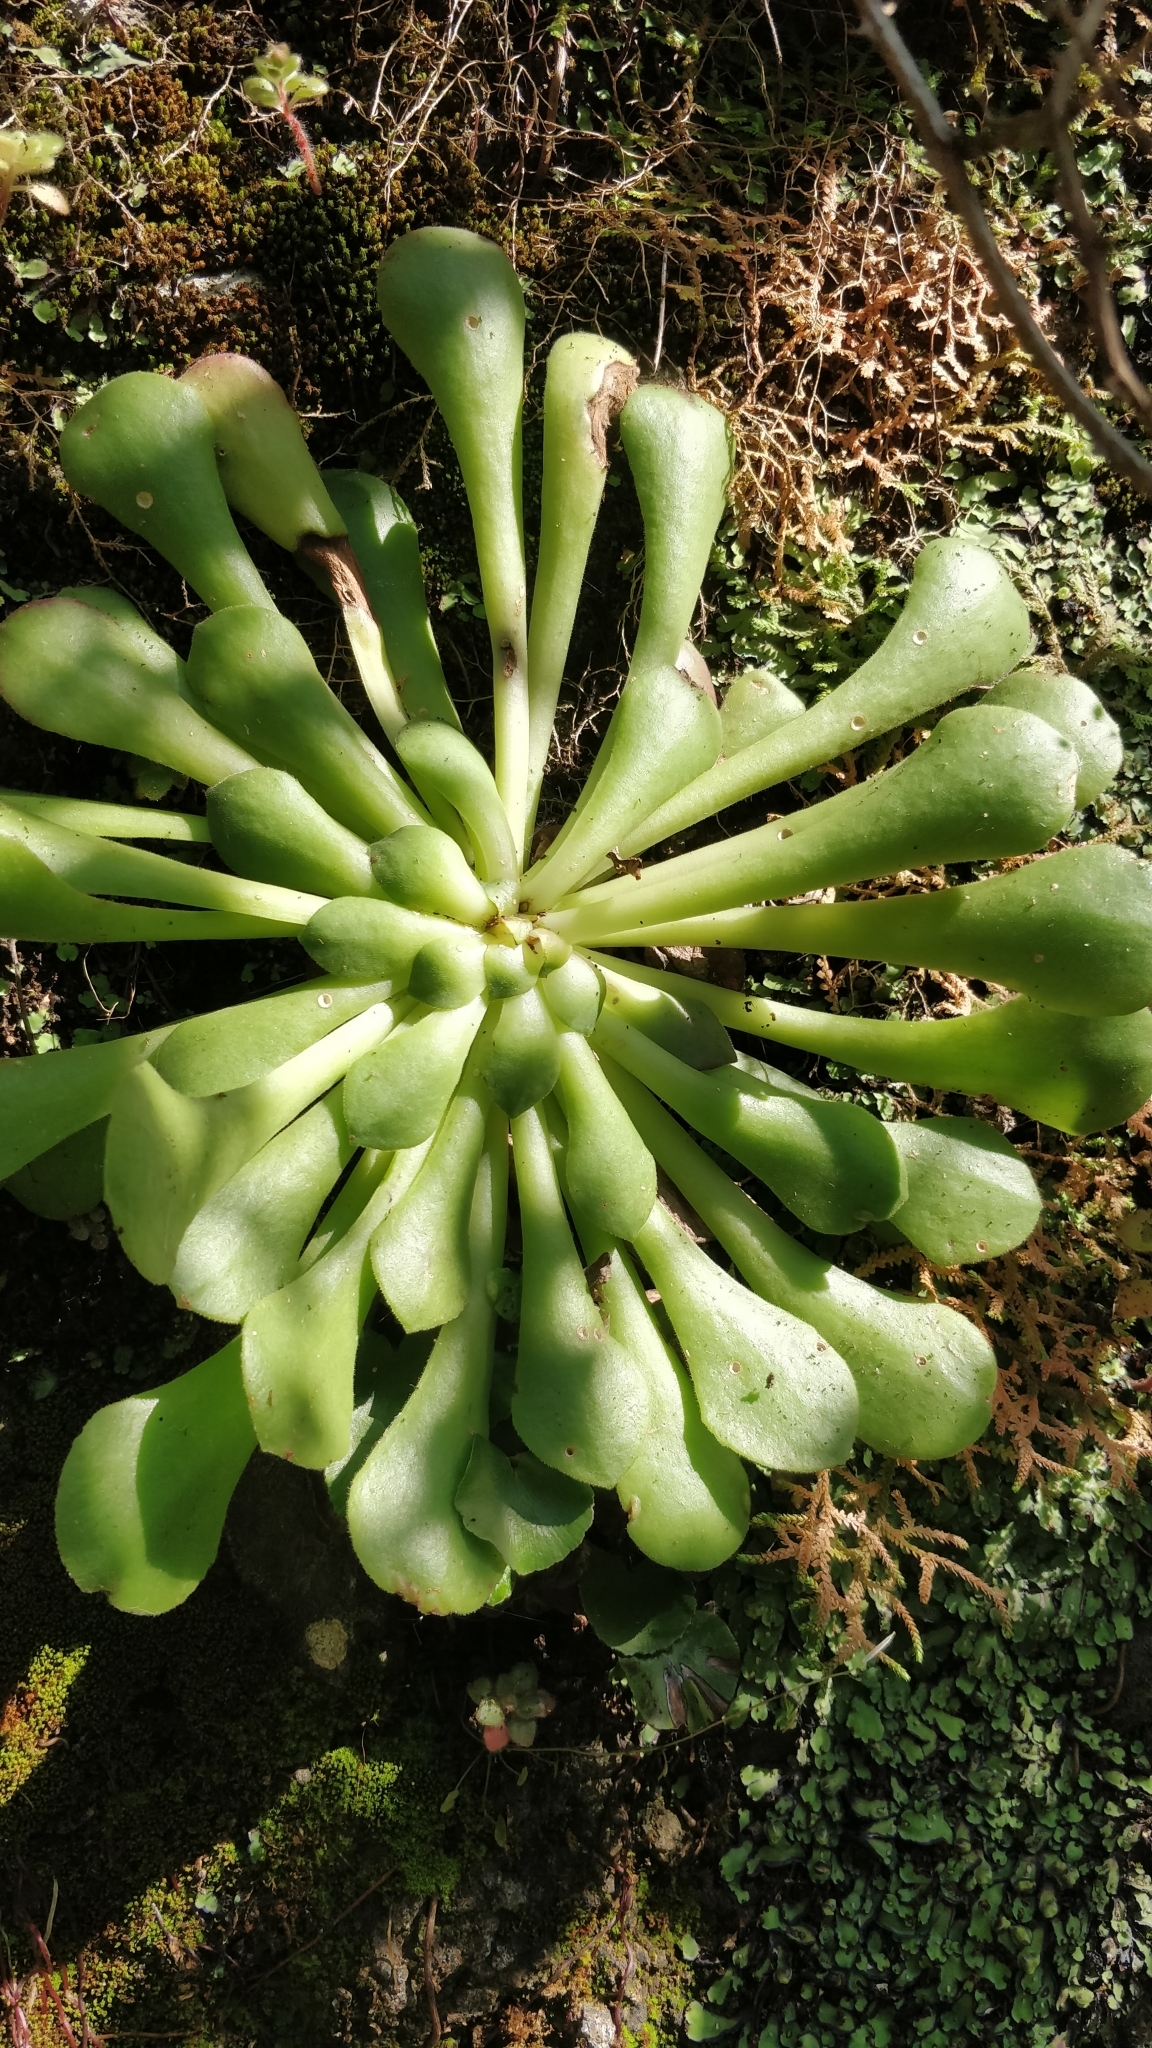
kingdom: Plantae
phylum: Tracheophyta
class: Magnoliopsida
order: Saxifragales
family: Crassulaceae
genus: Aeonium
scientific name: Aeonium glandulosum
